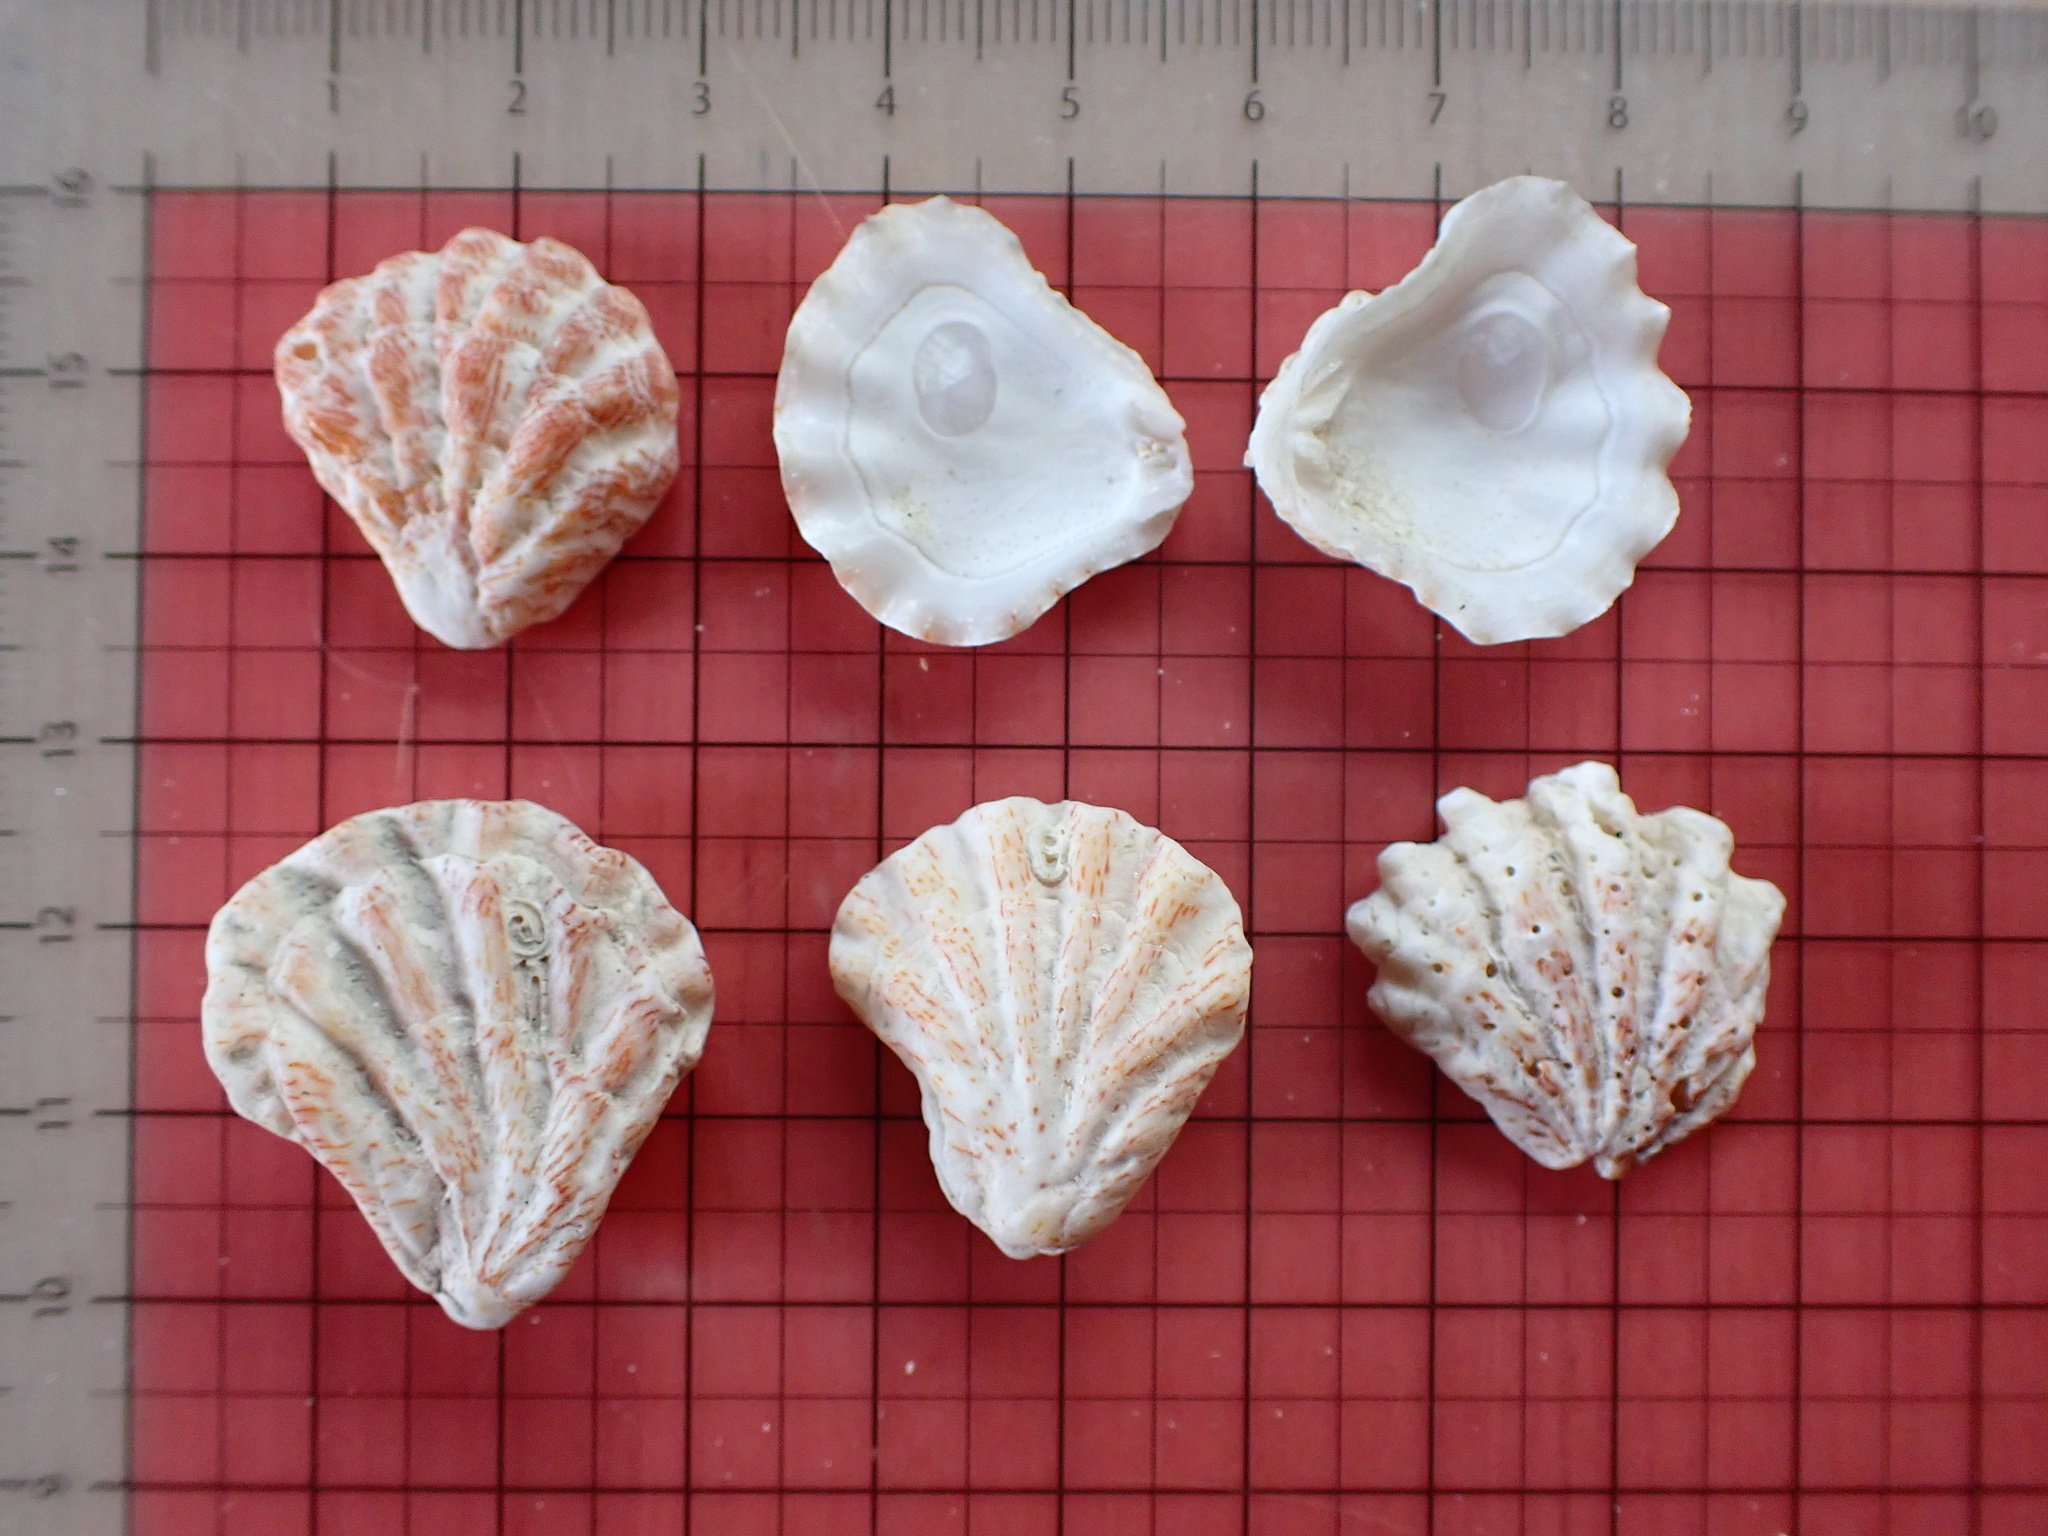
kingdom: Animalia
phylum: Mollusca
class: Bivalvia
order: Pectinida
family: Plicatulidae
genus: Plicatula
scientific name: Plicatula gibbosa
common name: Atlantic kitten's paw
